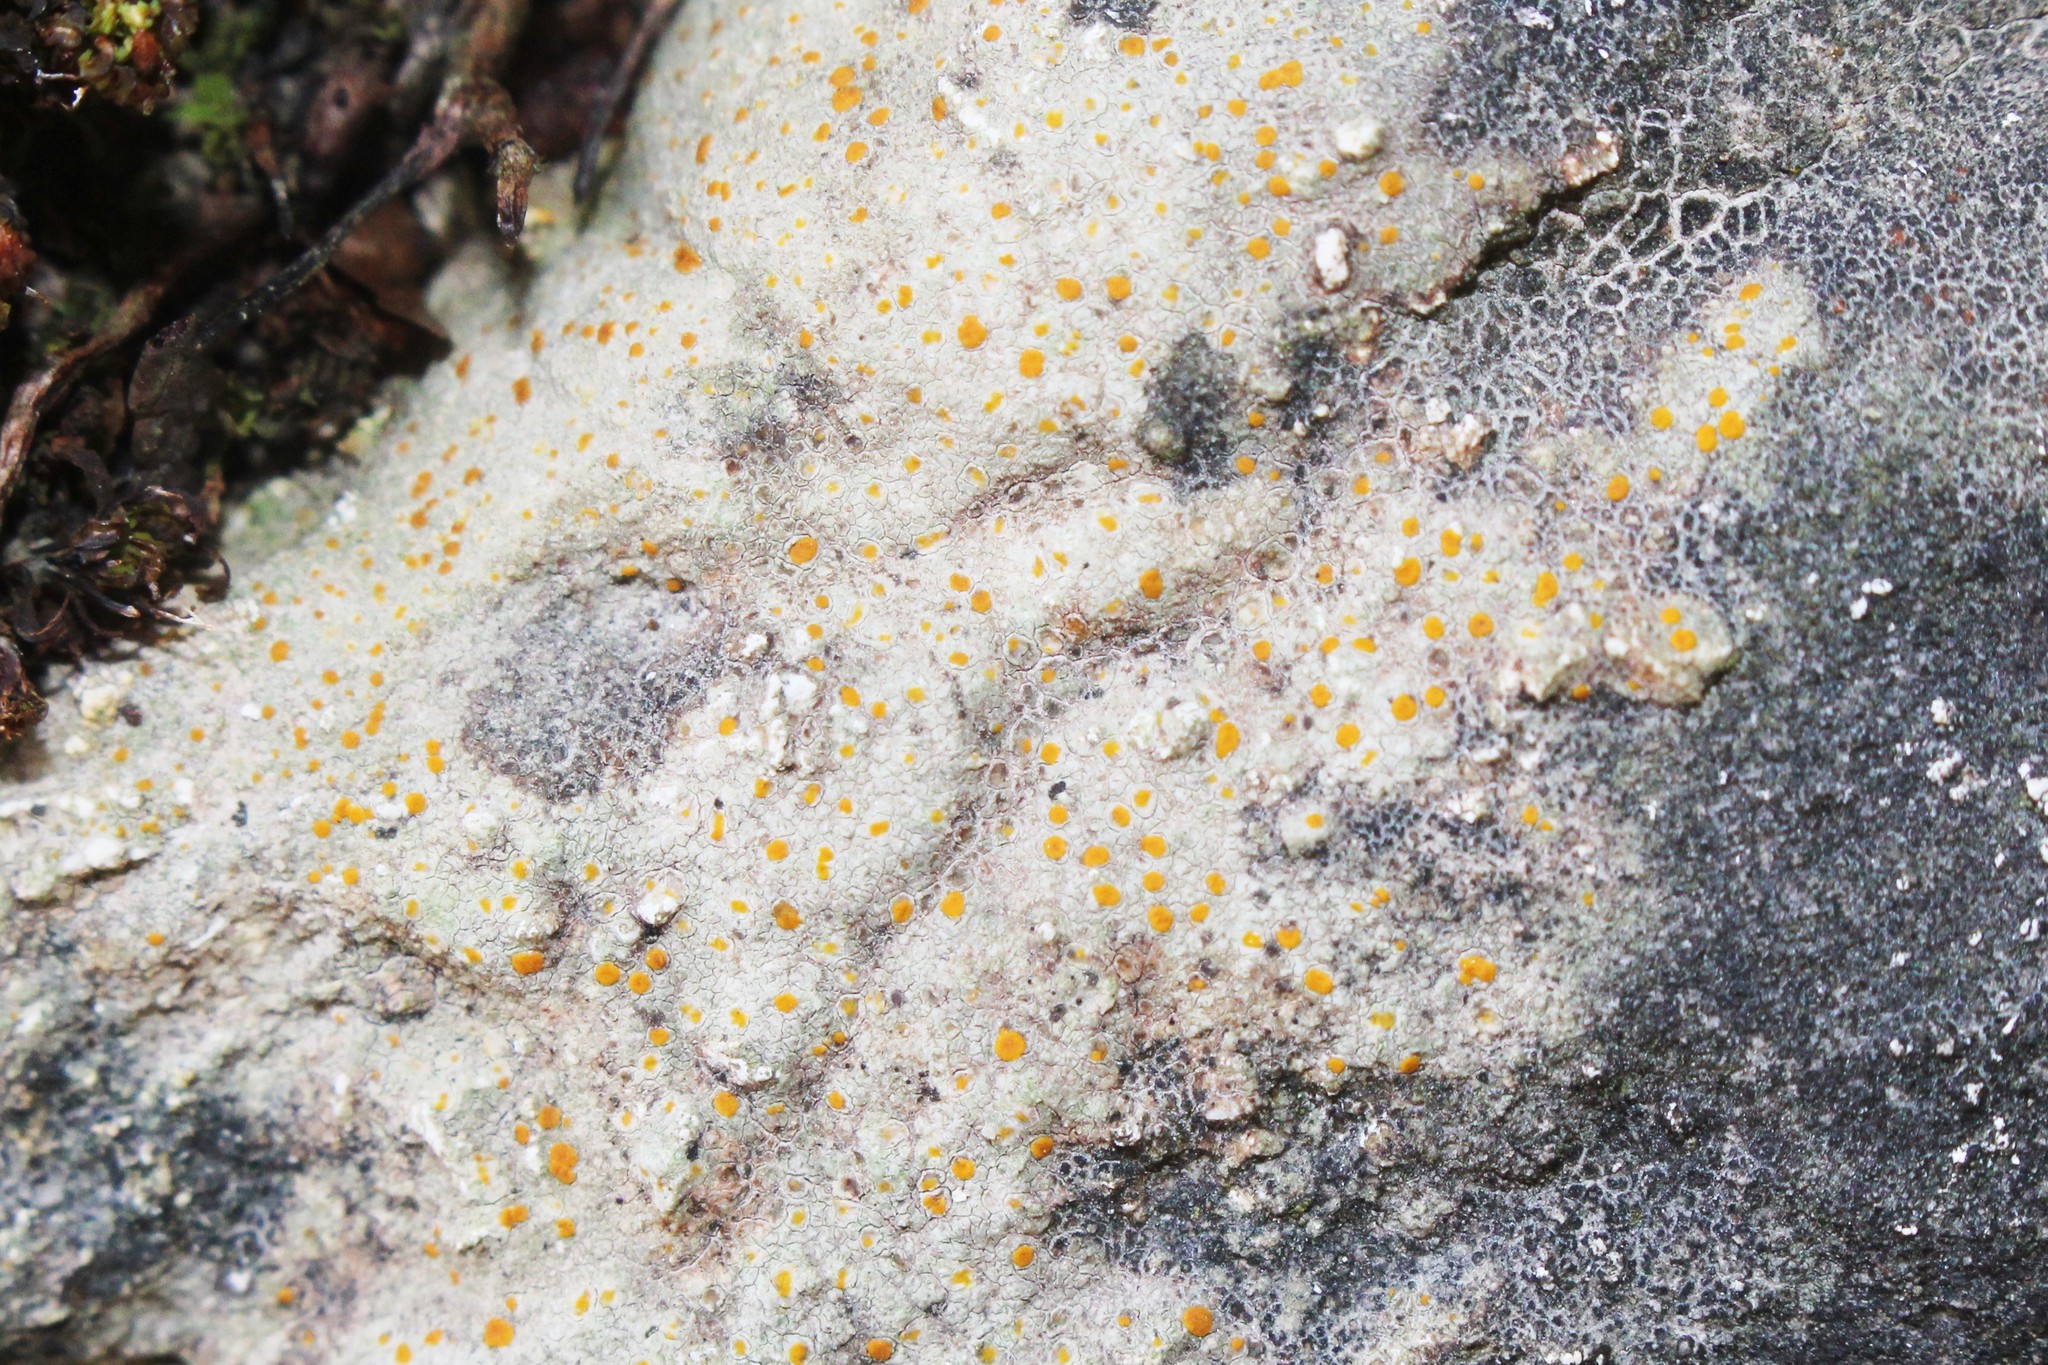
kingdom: Fungi
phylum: Ascomycota
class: Lecanoromycetes
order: Lecanorales
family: Psoraceae
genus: Protoblastenia
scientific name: Protoblastenia rupestris
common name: Chewing gum lichen
